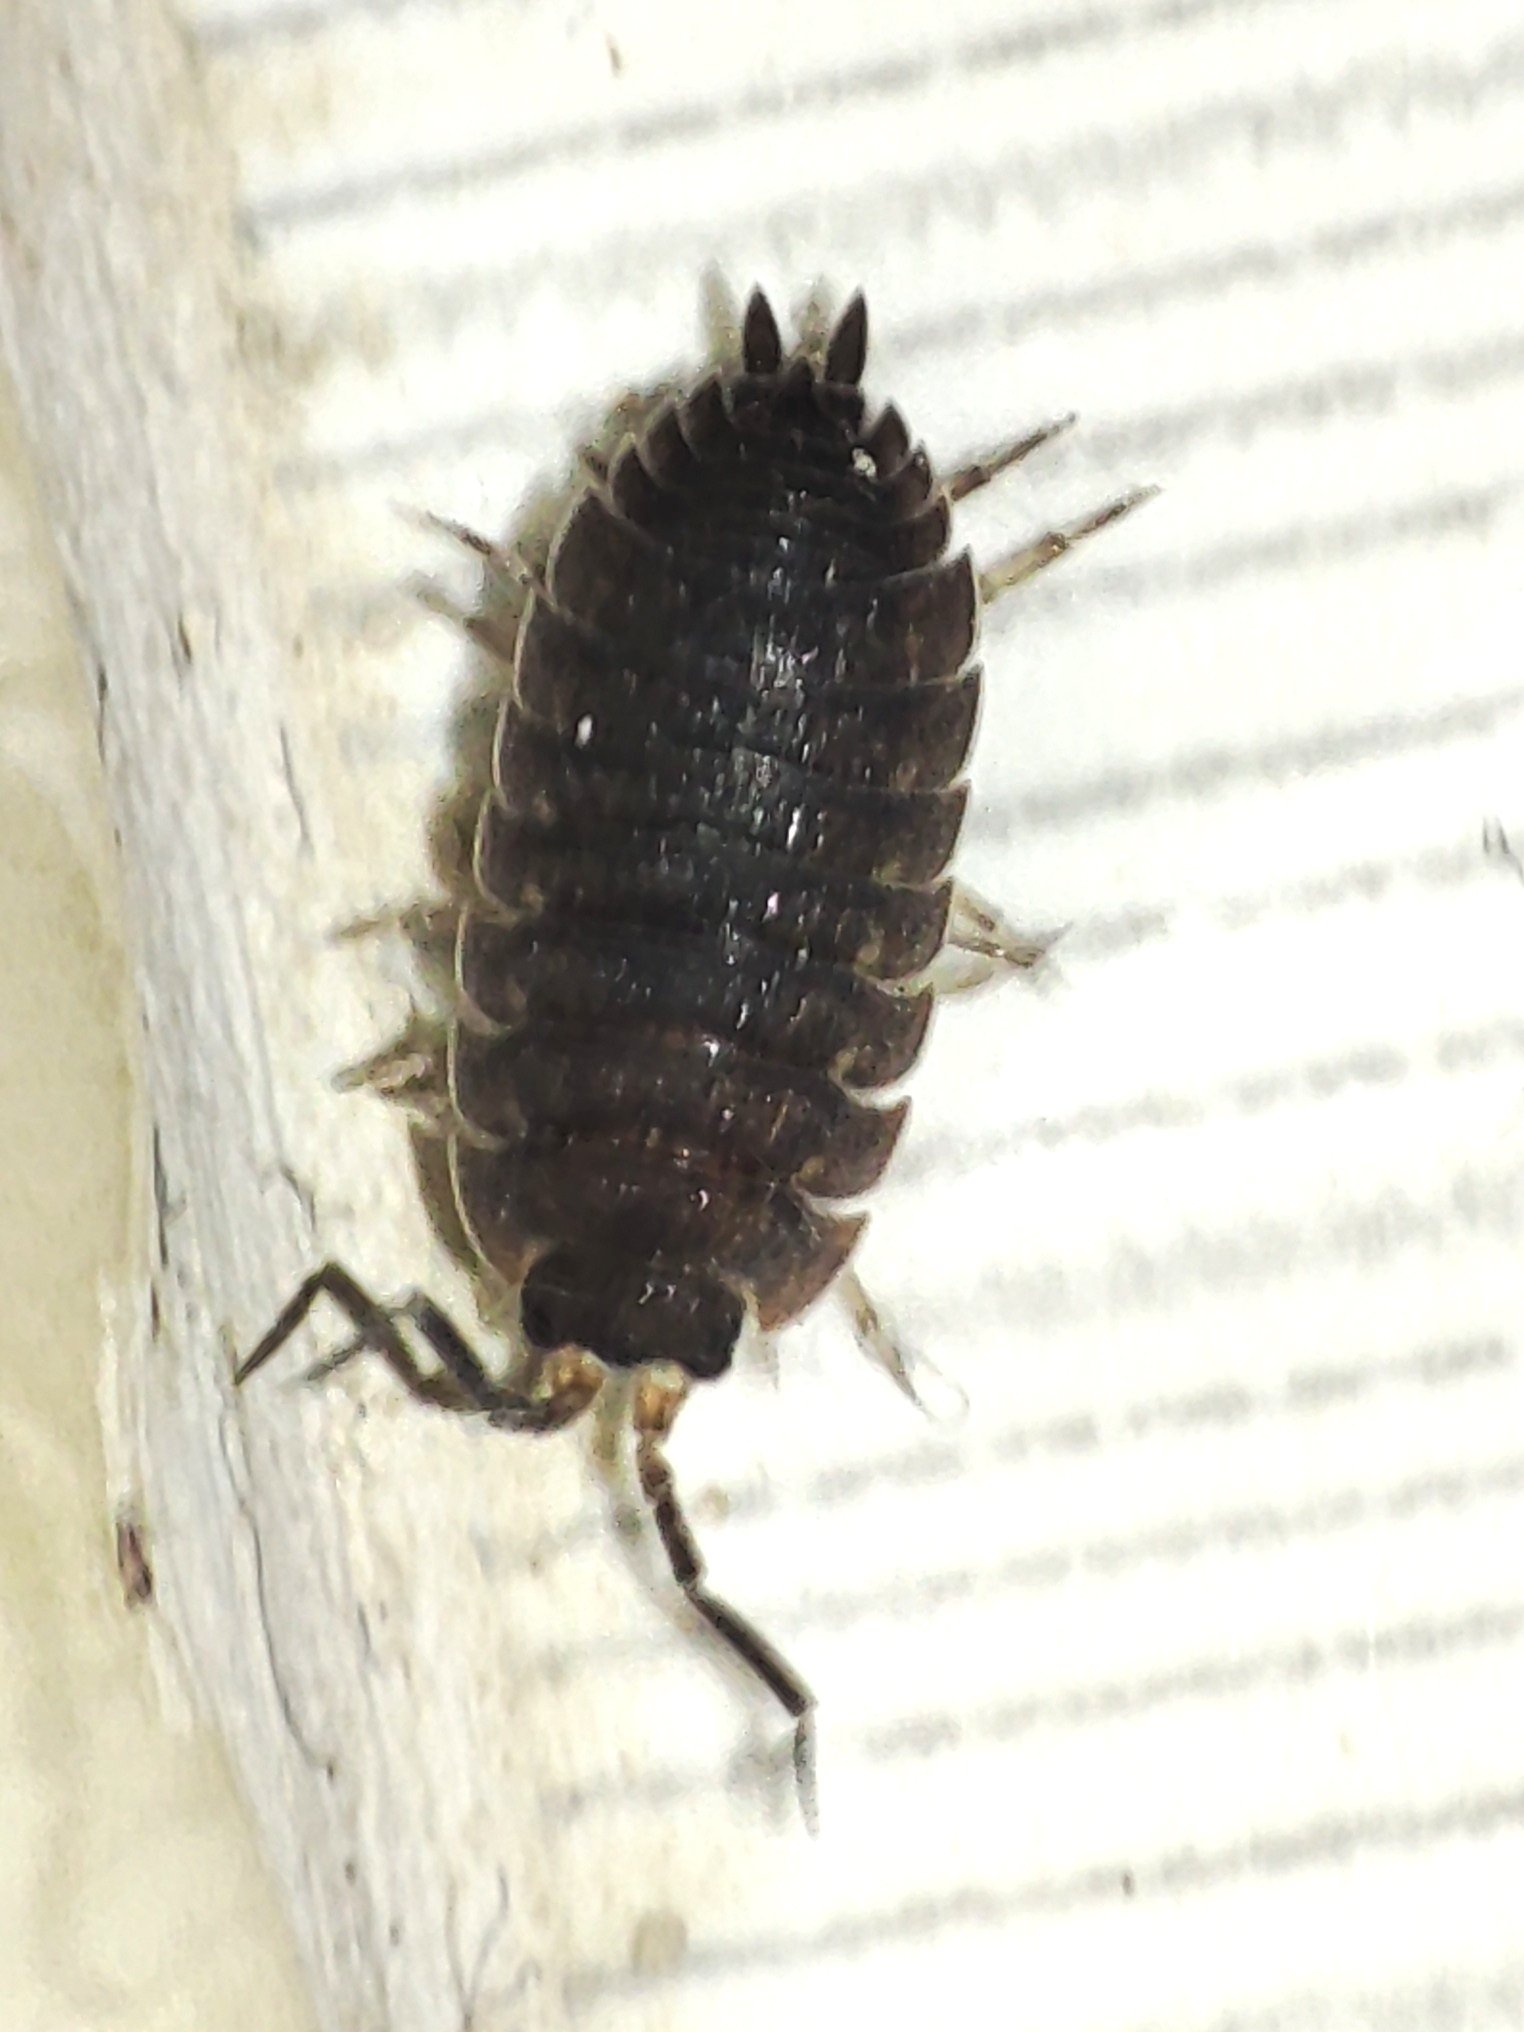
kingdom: Animalia
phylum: Arthropoda
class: Malacostraca
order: Isopoda
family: Porcellionidae
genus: Porcellio
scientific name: Porcellio scaber
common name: Common rough woodlouse
